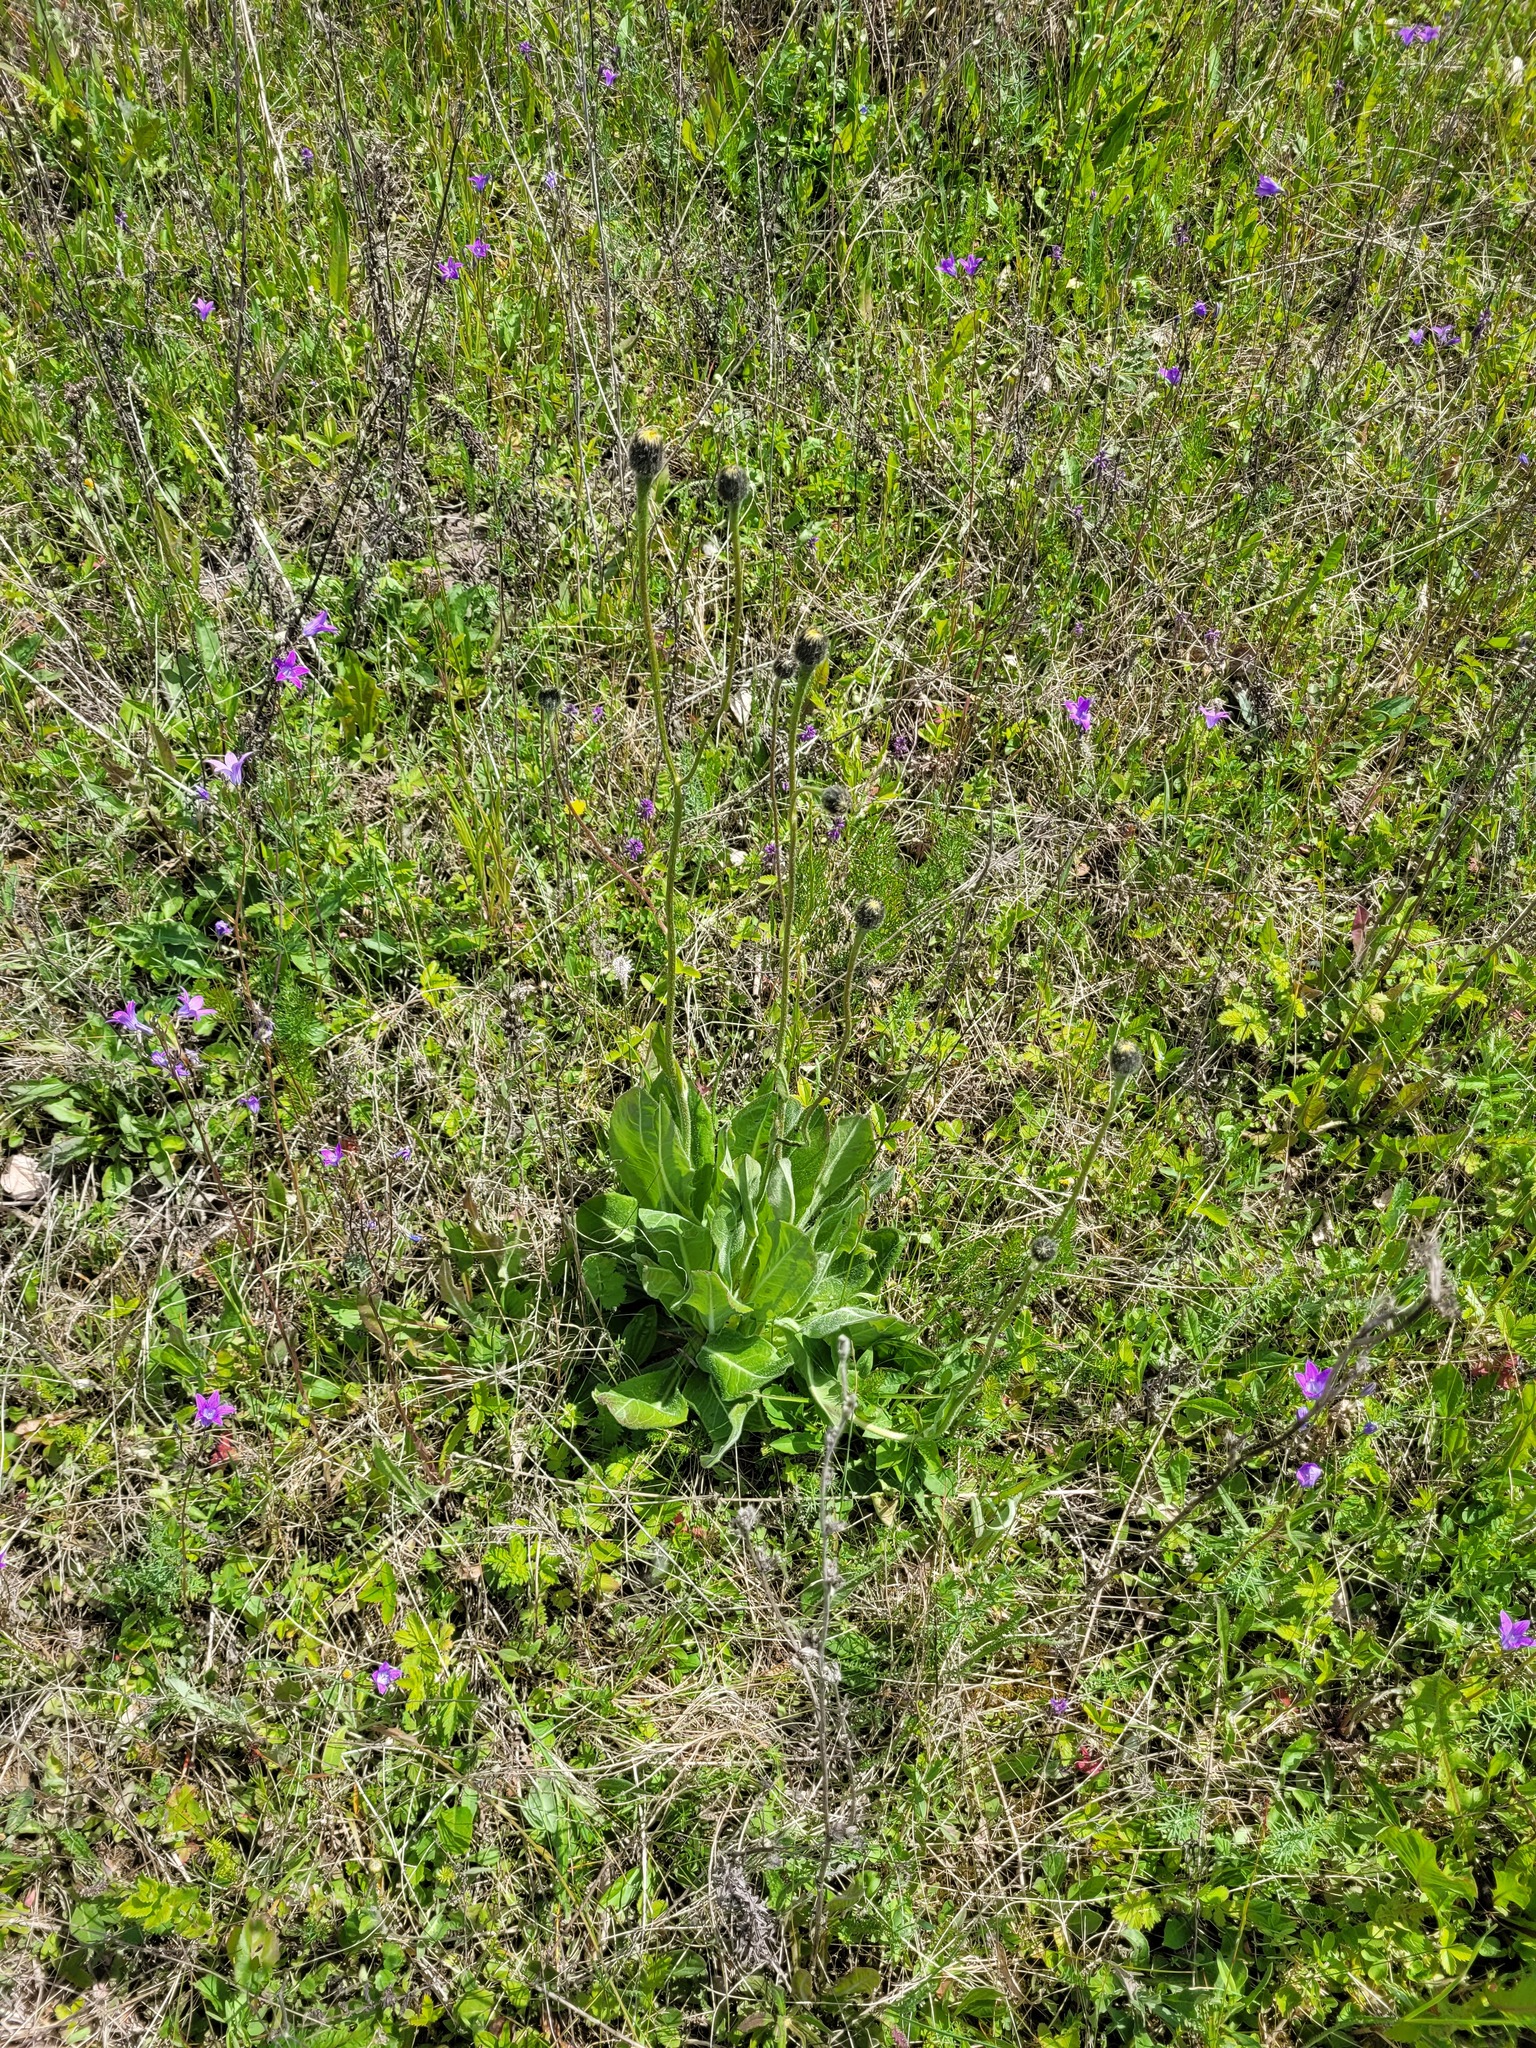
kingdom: Plantae
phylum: Tracheophyta
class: Magnoliopsida
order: Asterales
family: Asteraceae
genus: Trommsdorffia
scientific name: Trommsdorffia maculata
